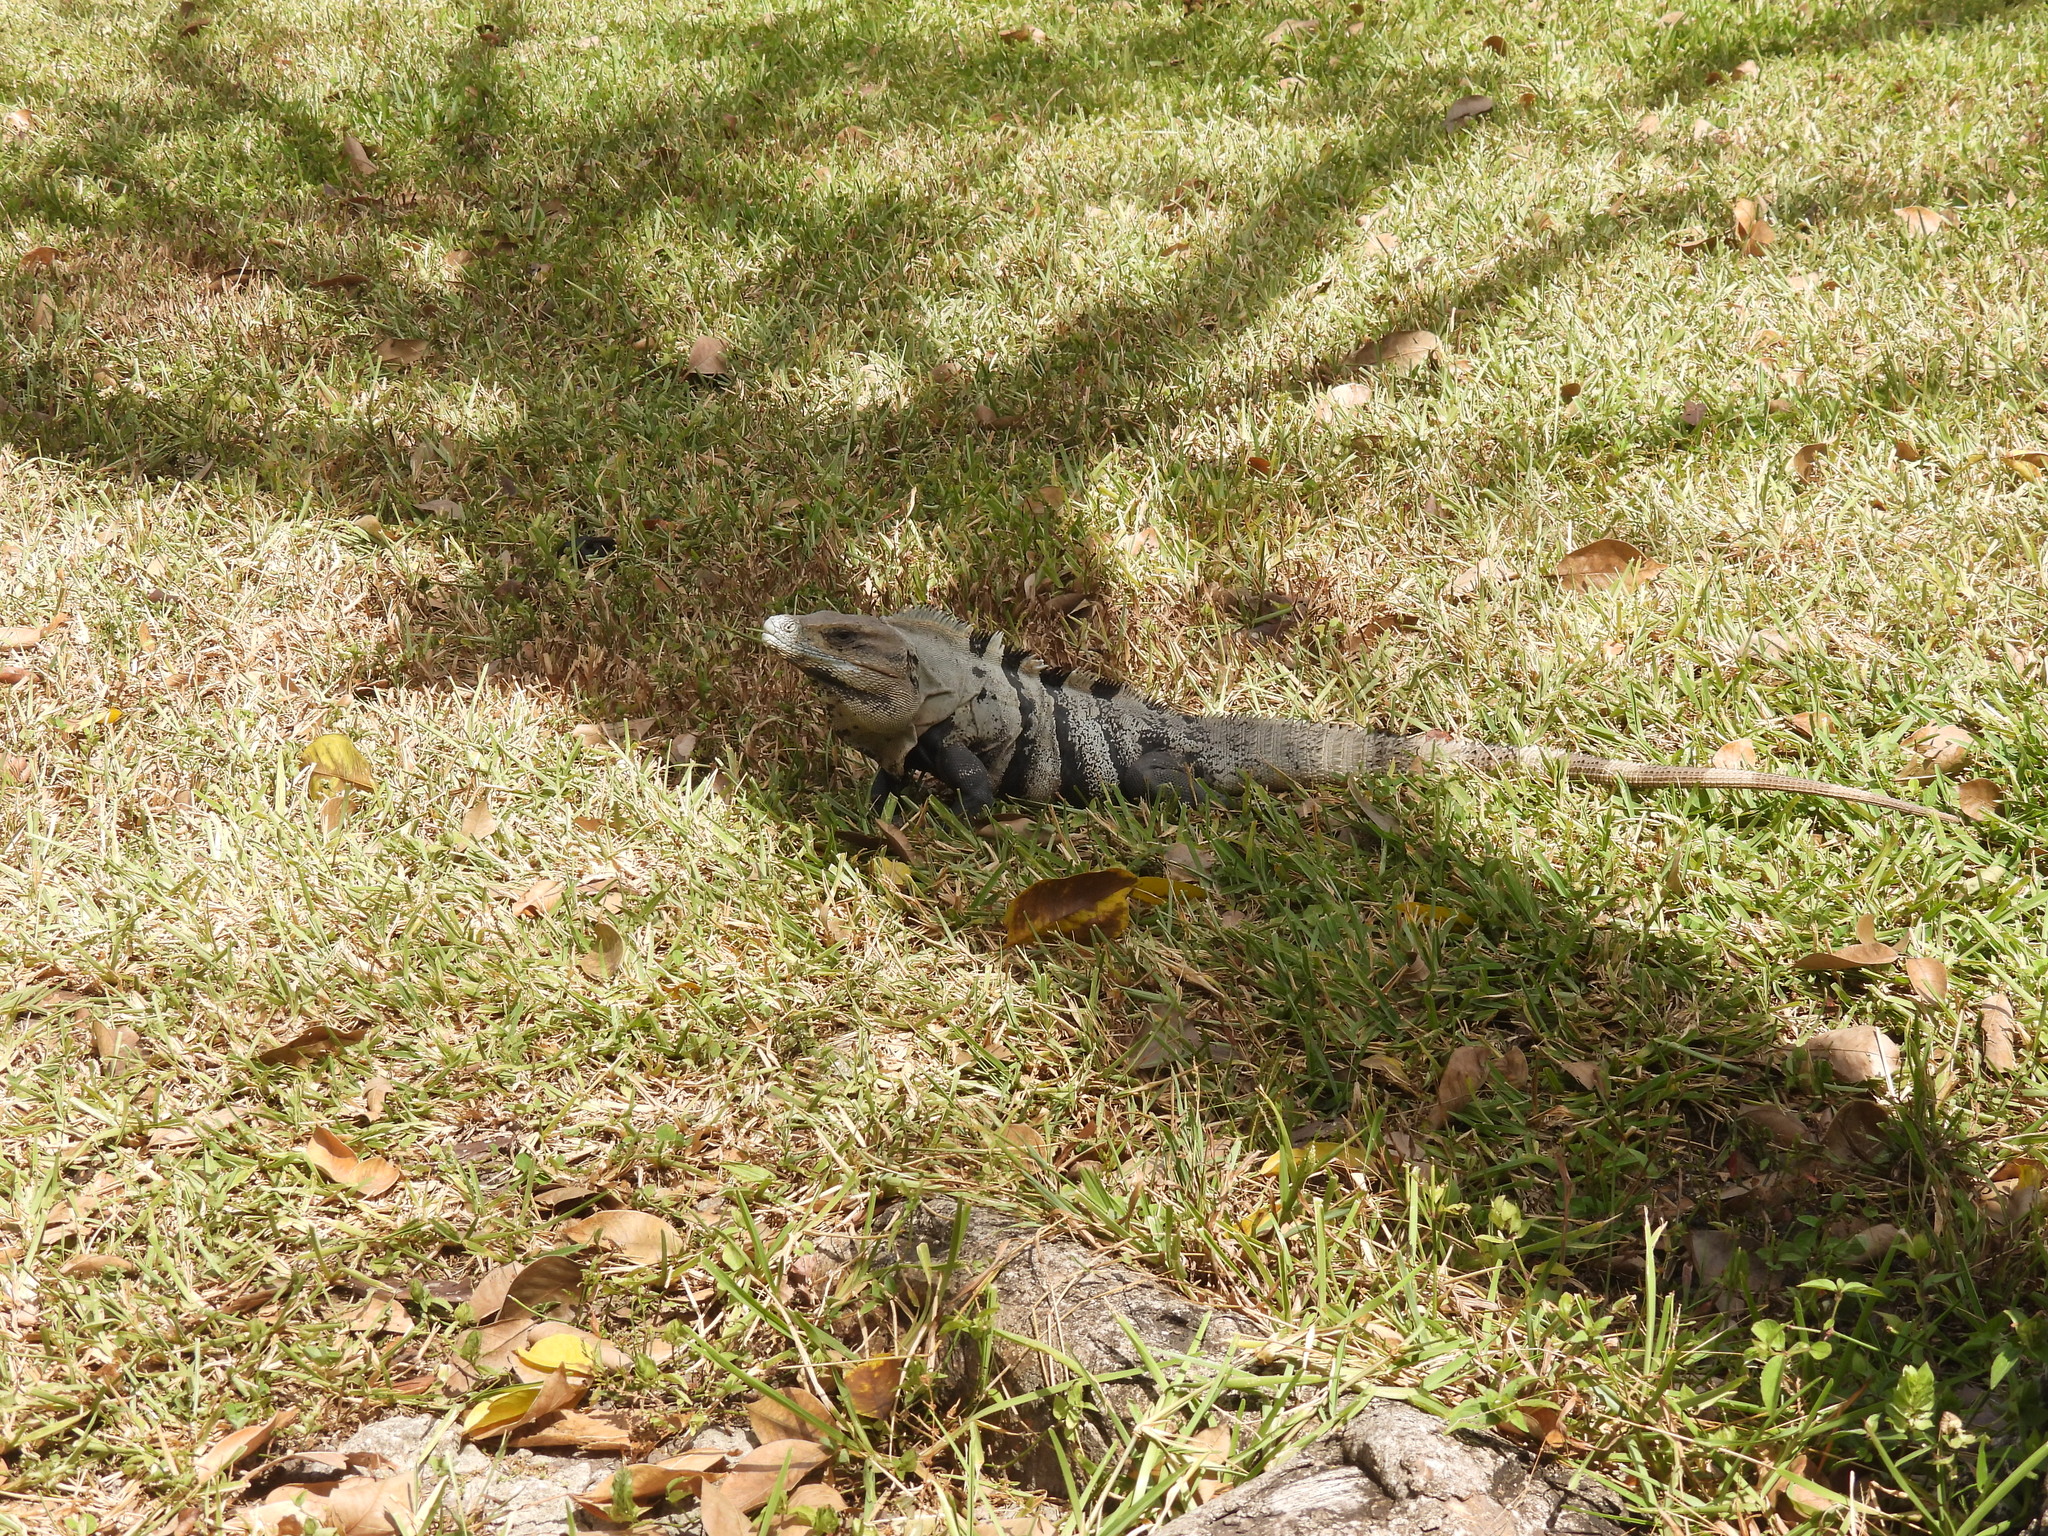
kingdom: Animalia
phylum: Chordata
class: Squamata
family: Iguanidae
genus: Ctenosaura
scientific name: Ctenosaura similis
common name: Black spiny-tailed iguana
